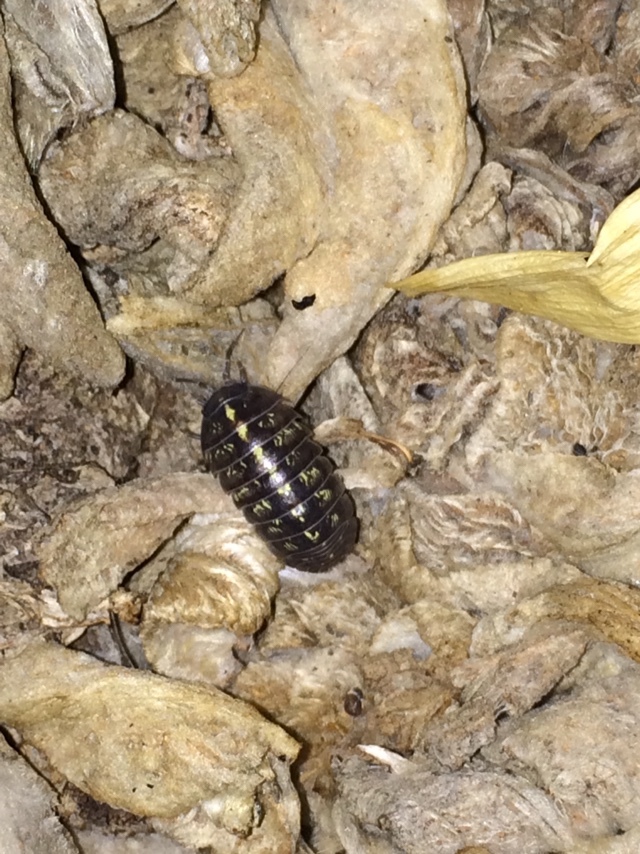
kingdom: Animalia
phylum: Arthropoda
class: Malacostraca
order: Isopoda
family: Armadillidiidae
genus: Armadillidium
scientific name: Armadillidium vulgare
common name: Common pill woodlouse
